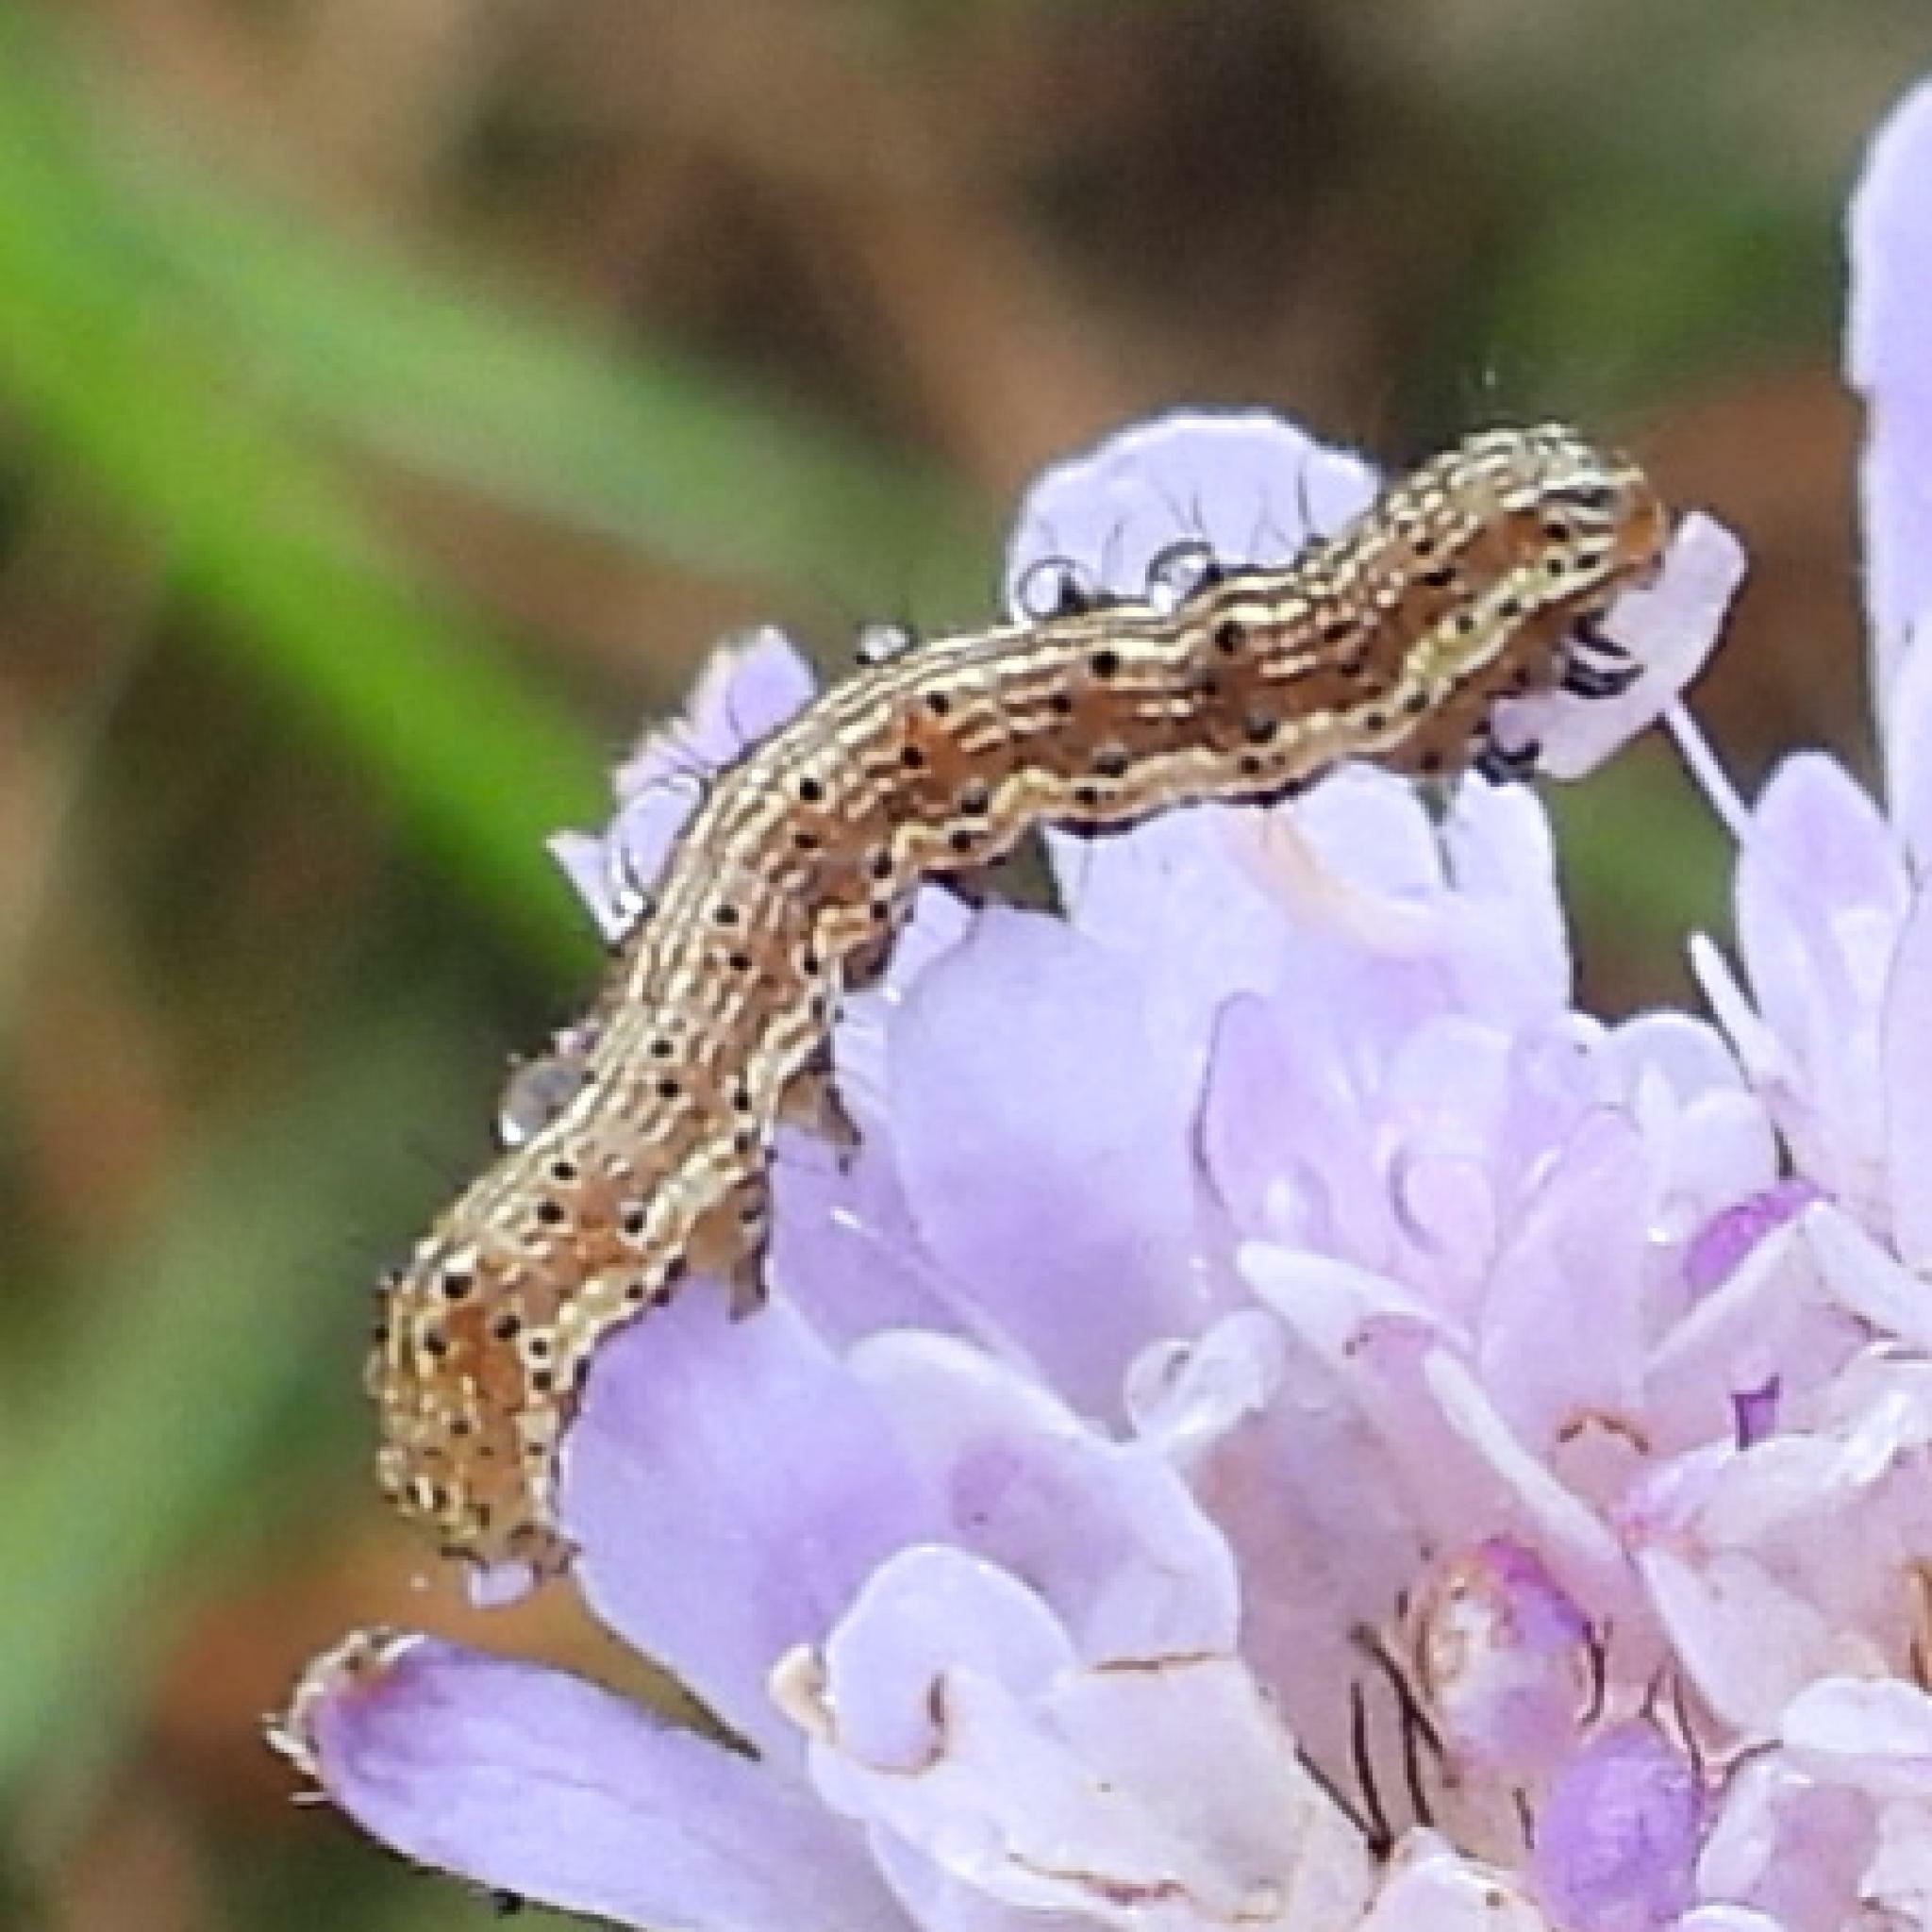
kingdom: Animalia
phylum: Arthropoda
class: Insecta
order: Lepidoptera
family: Noctuidae
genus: Helicoverpa
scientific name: Helicoverpa armigera
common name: Cotton bollworm
